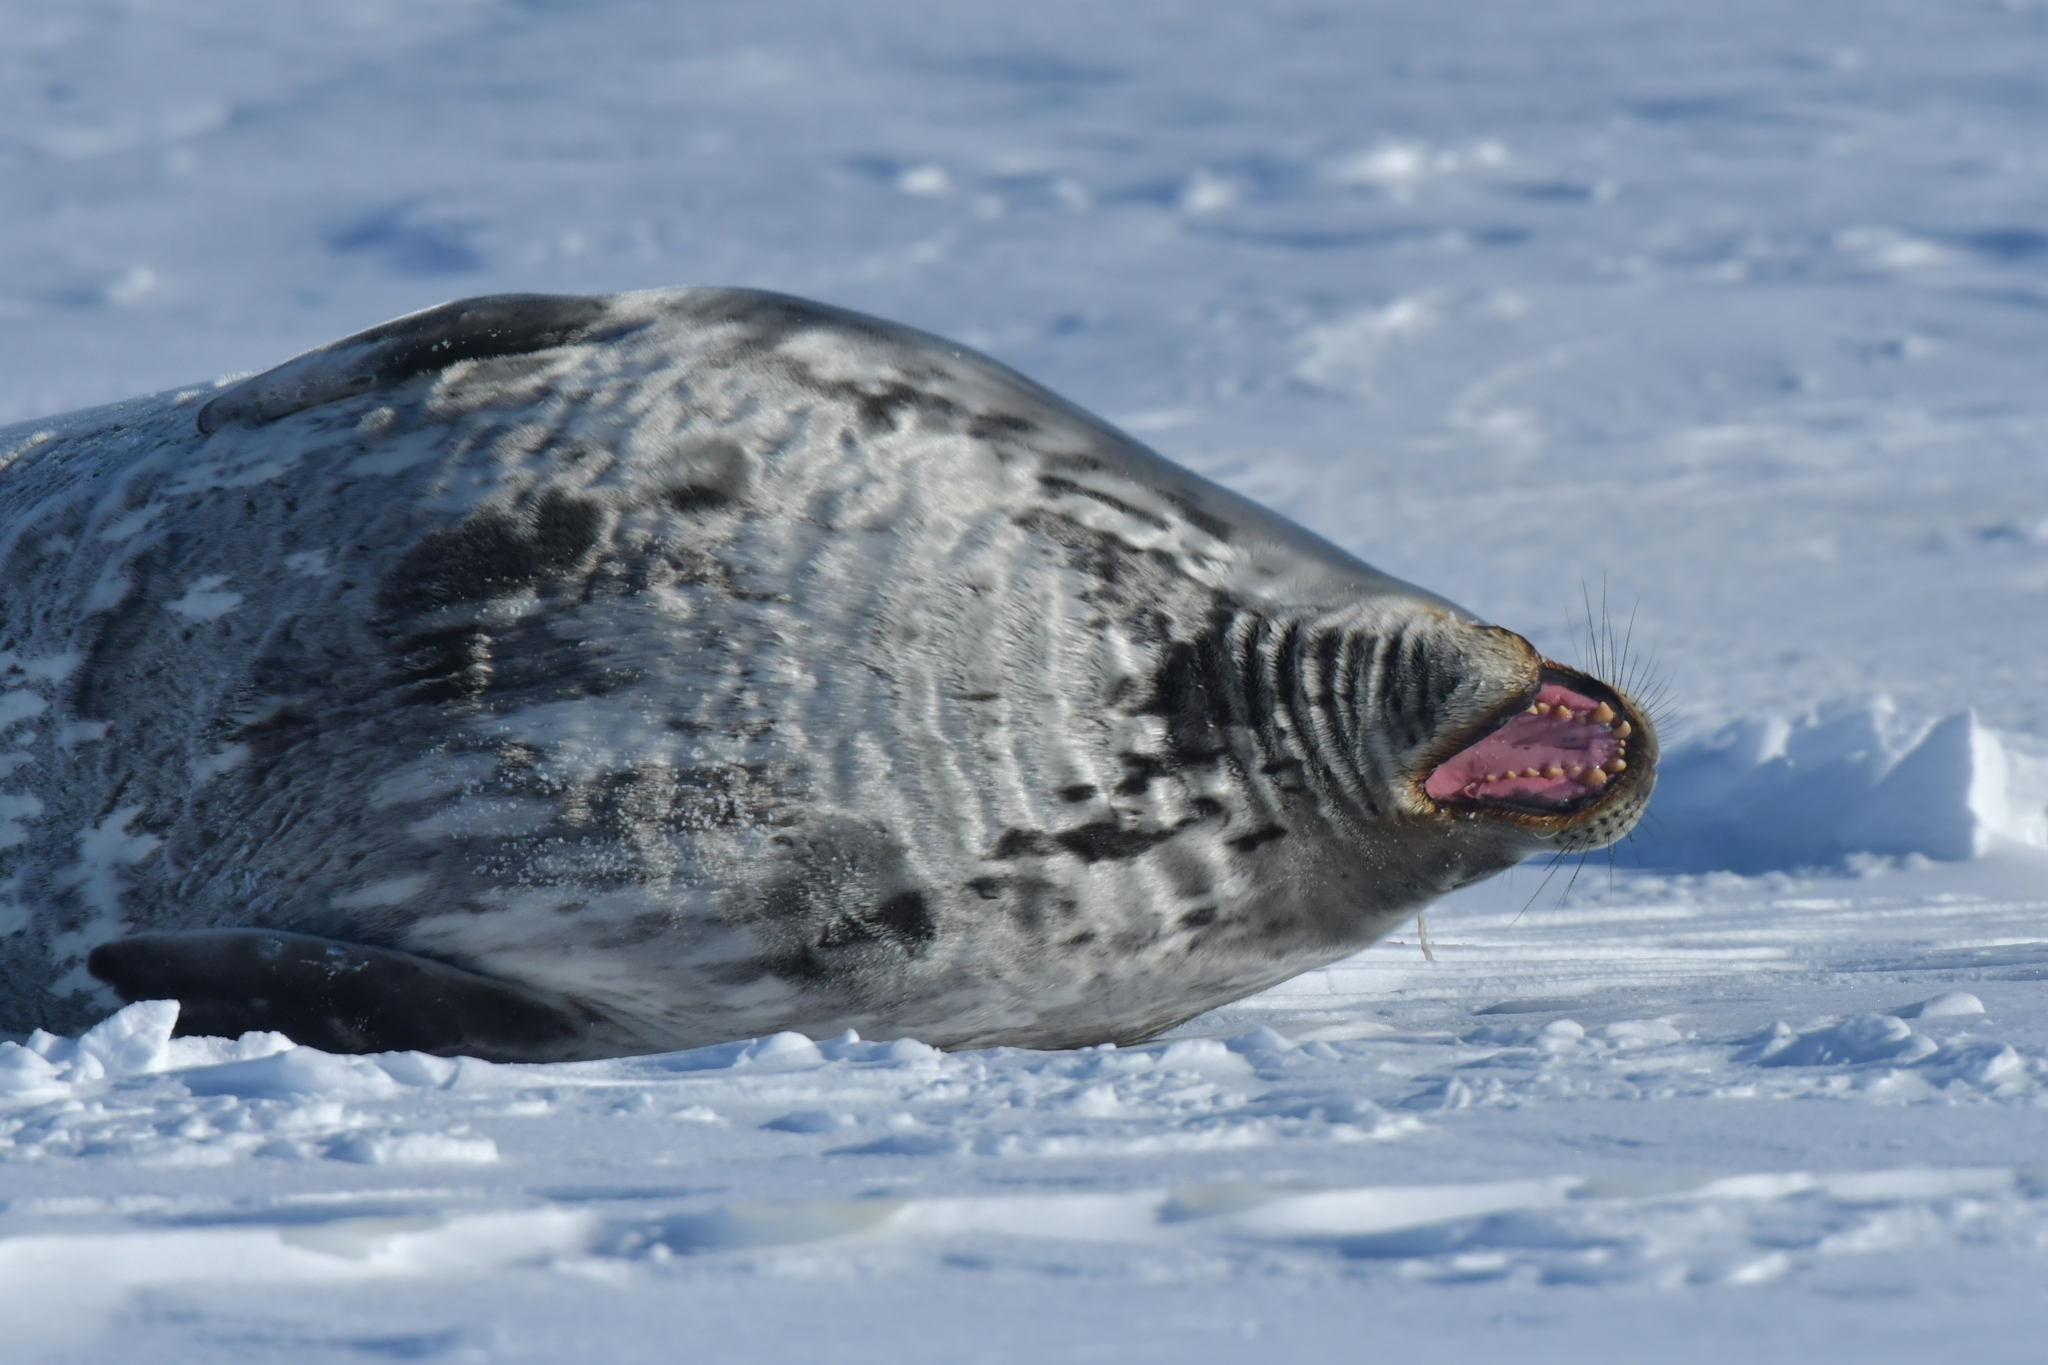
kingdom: Animalia
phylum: Chordata
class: Mammalia
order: Carnivora
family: Phocidae
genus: Leptonychotes
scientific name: Leptonychotes weddellii
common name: Weddell seal
